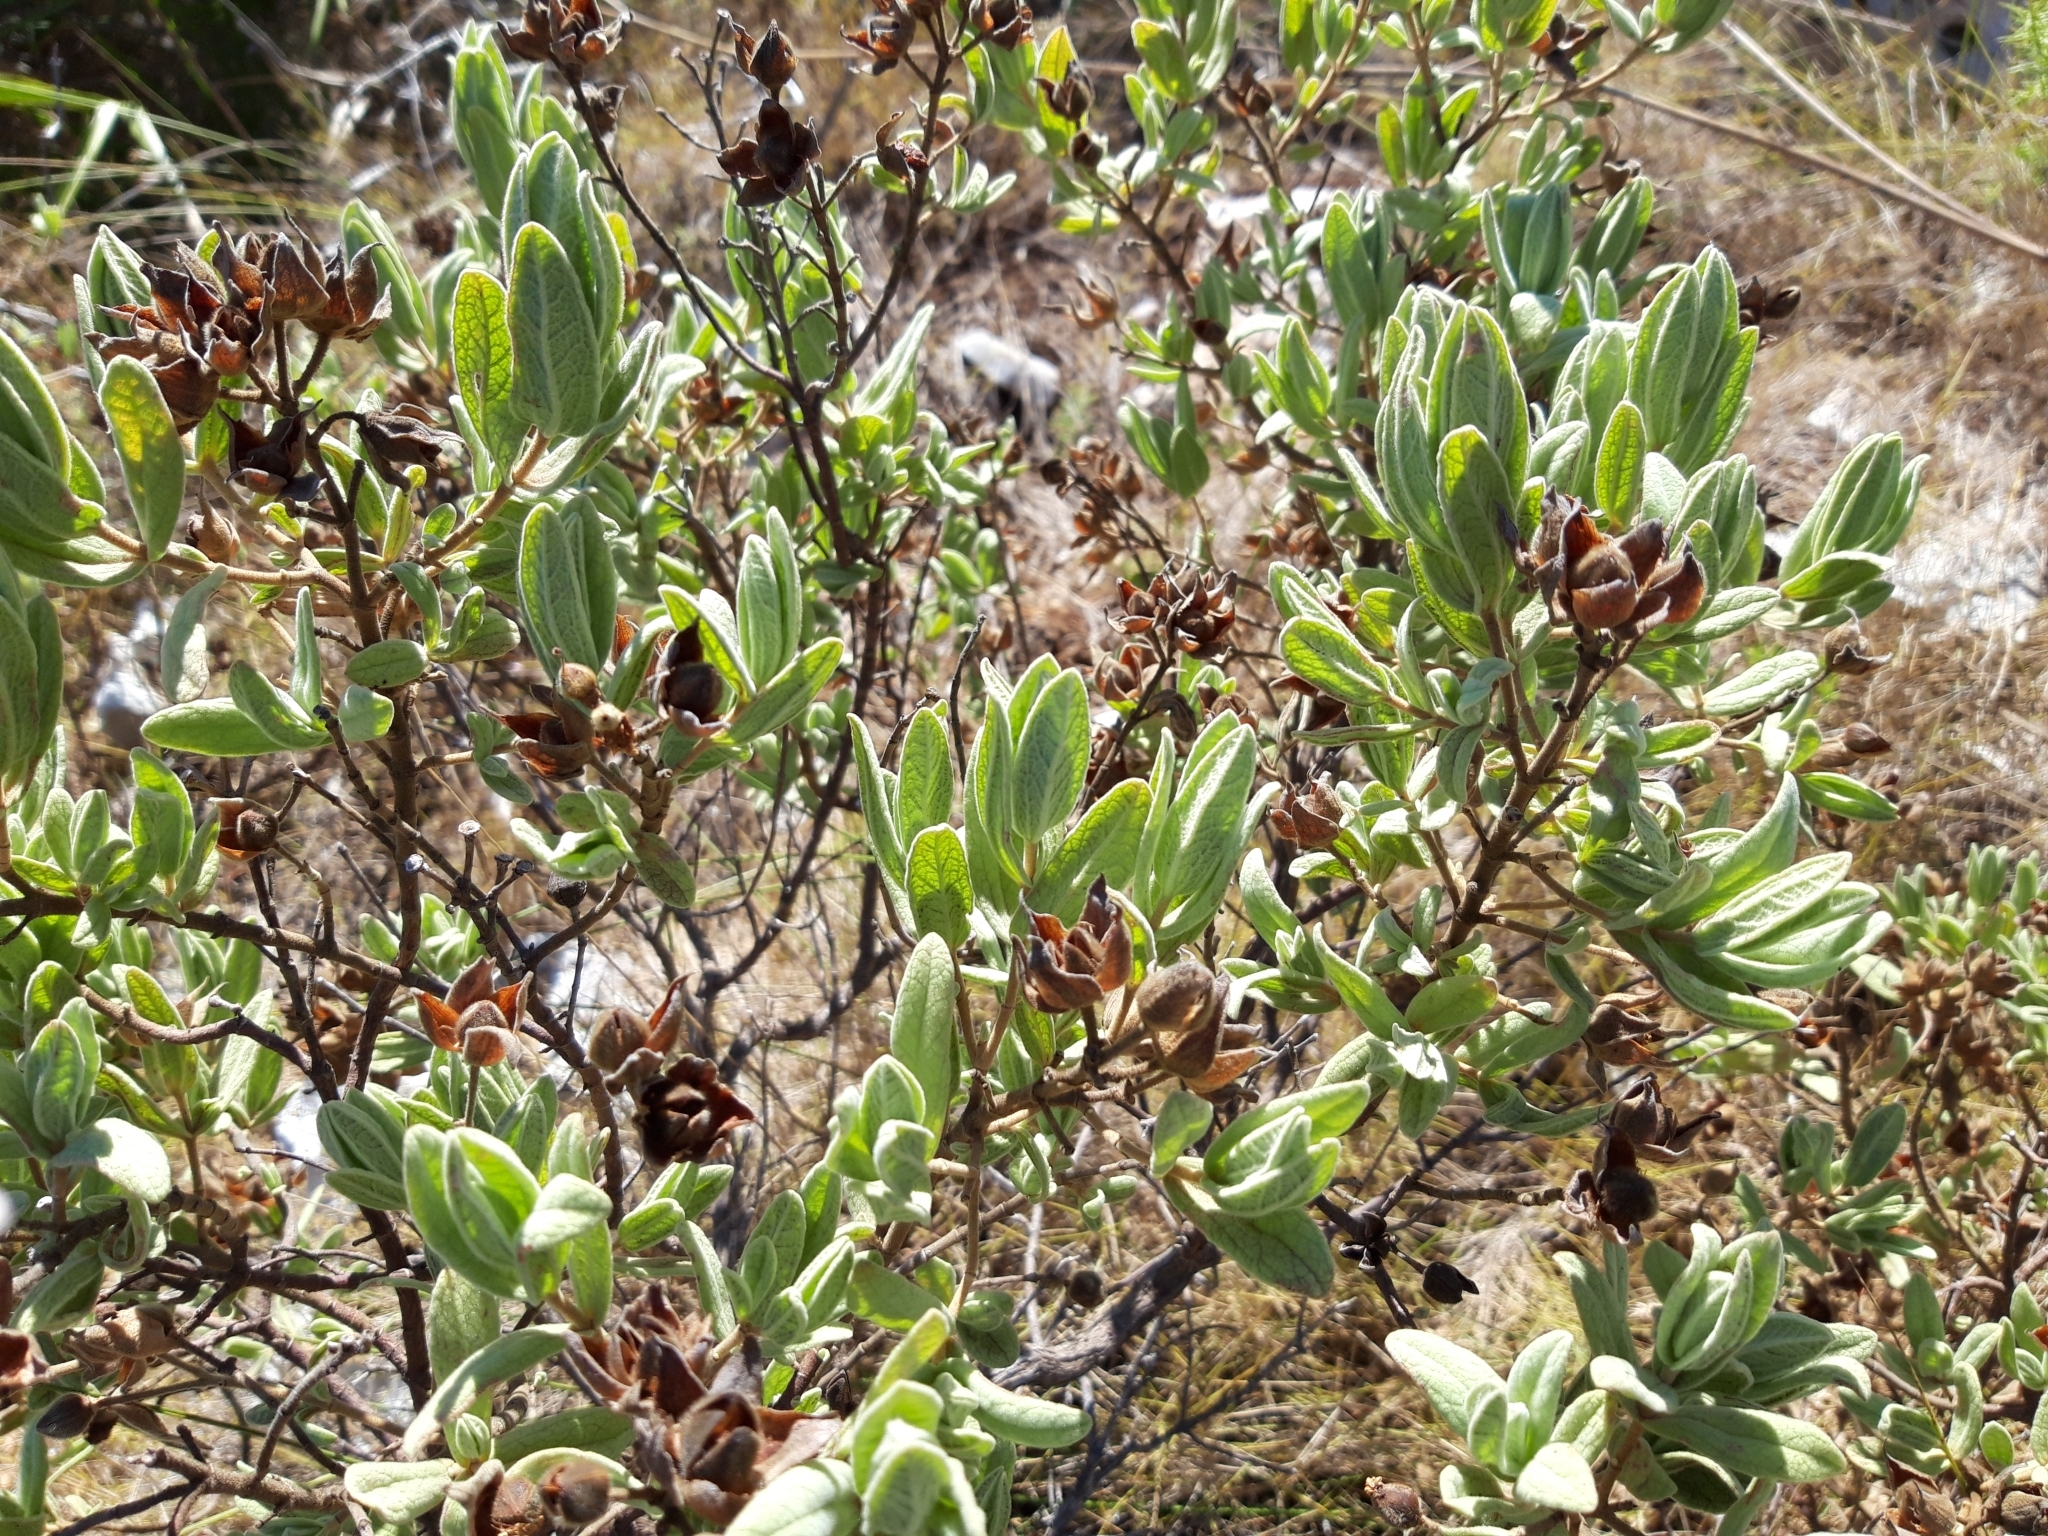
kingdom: Plantae
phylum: Tracheophyta
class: Magnoliopsida
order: Malvales
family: Cistaceae
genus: Cistus
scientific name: Cistus albidus
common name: White-leaf rock-rose
